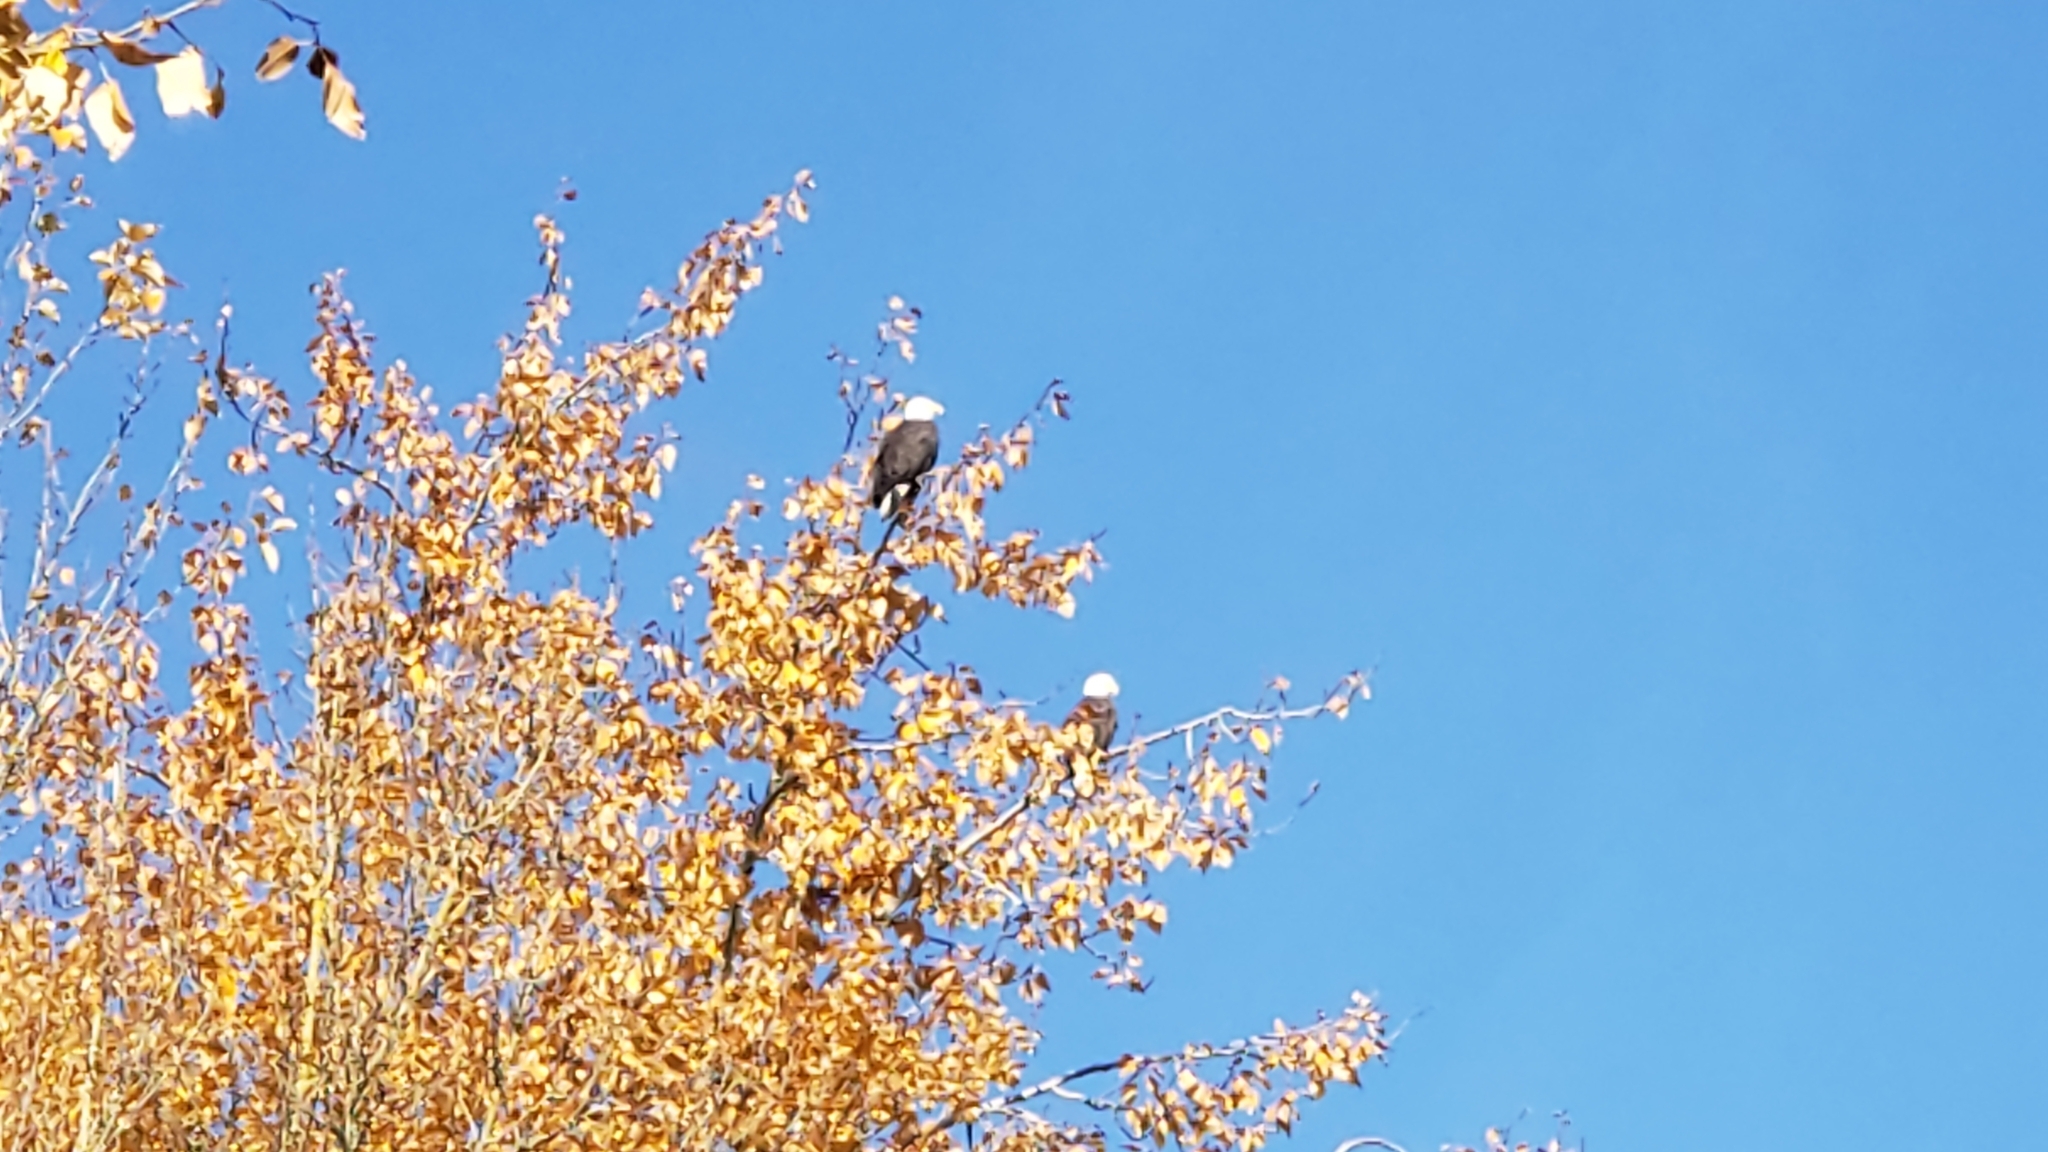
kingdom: Animalia
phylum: Chordata
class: Aves
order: Accipitriformes
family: Accipitridae
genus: Haliaeetus
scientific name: Haliaeetus leucocephalus
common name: Bald eagle
